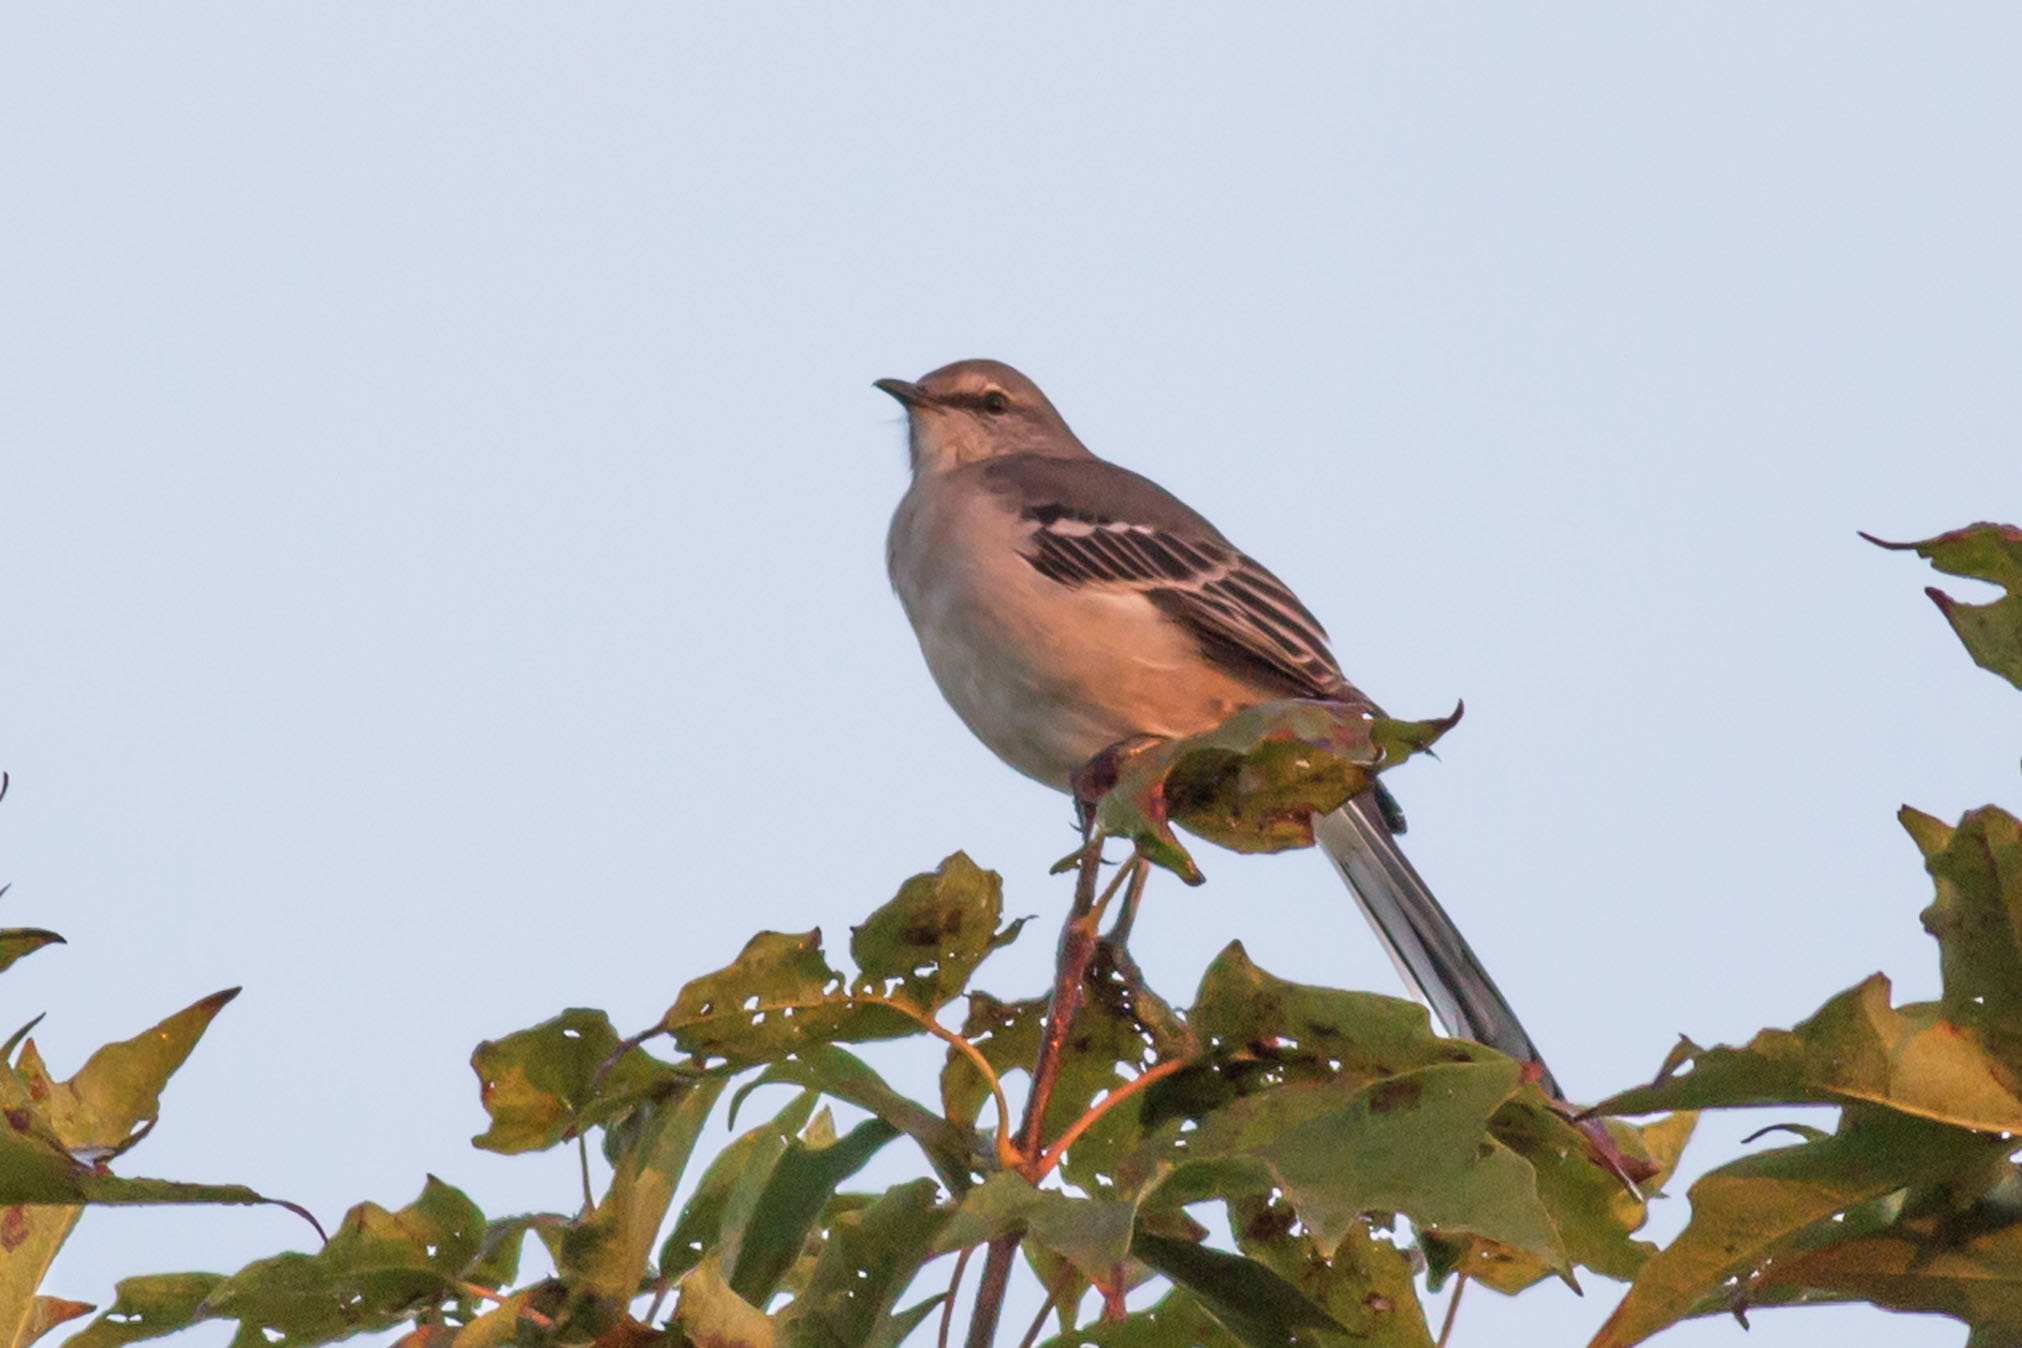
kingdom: Animalia
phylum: Chordata
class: Aves
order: Passeriformes
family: Mimidae
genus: Mimus
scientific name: Mimus polyglottos
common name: Northern mockingbird
